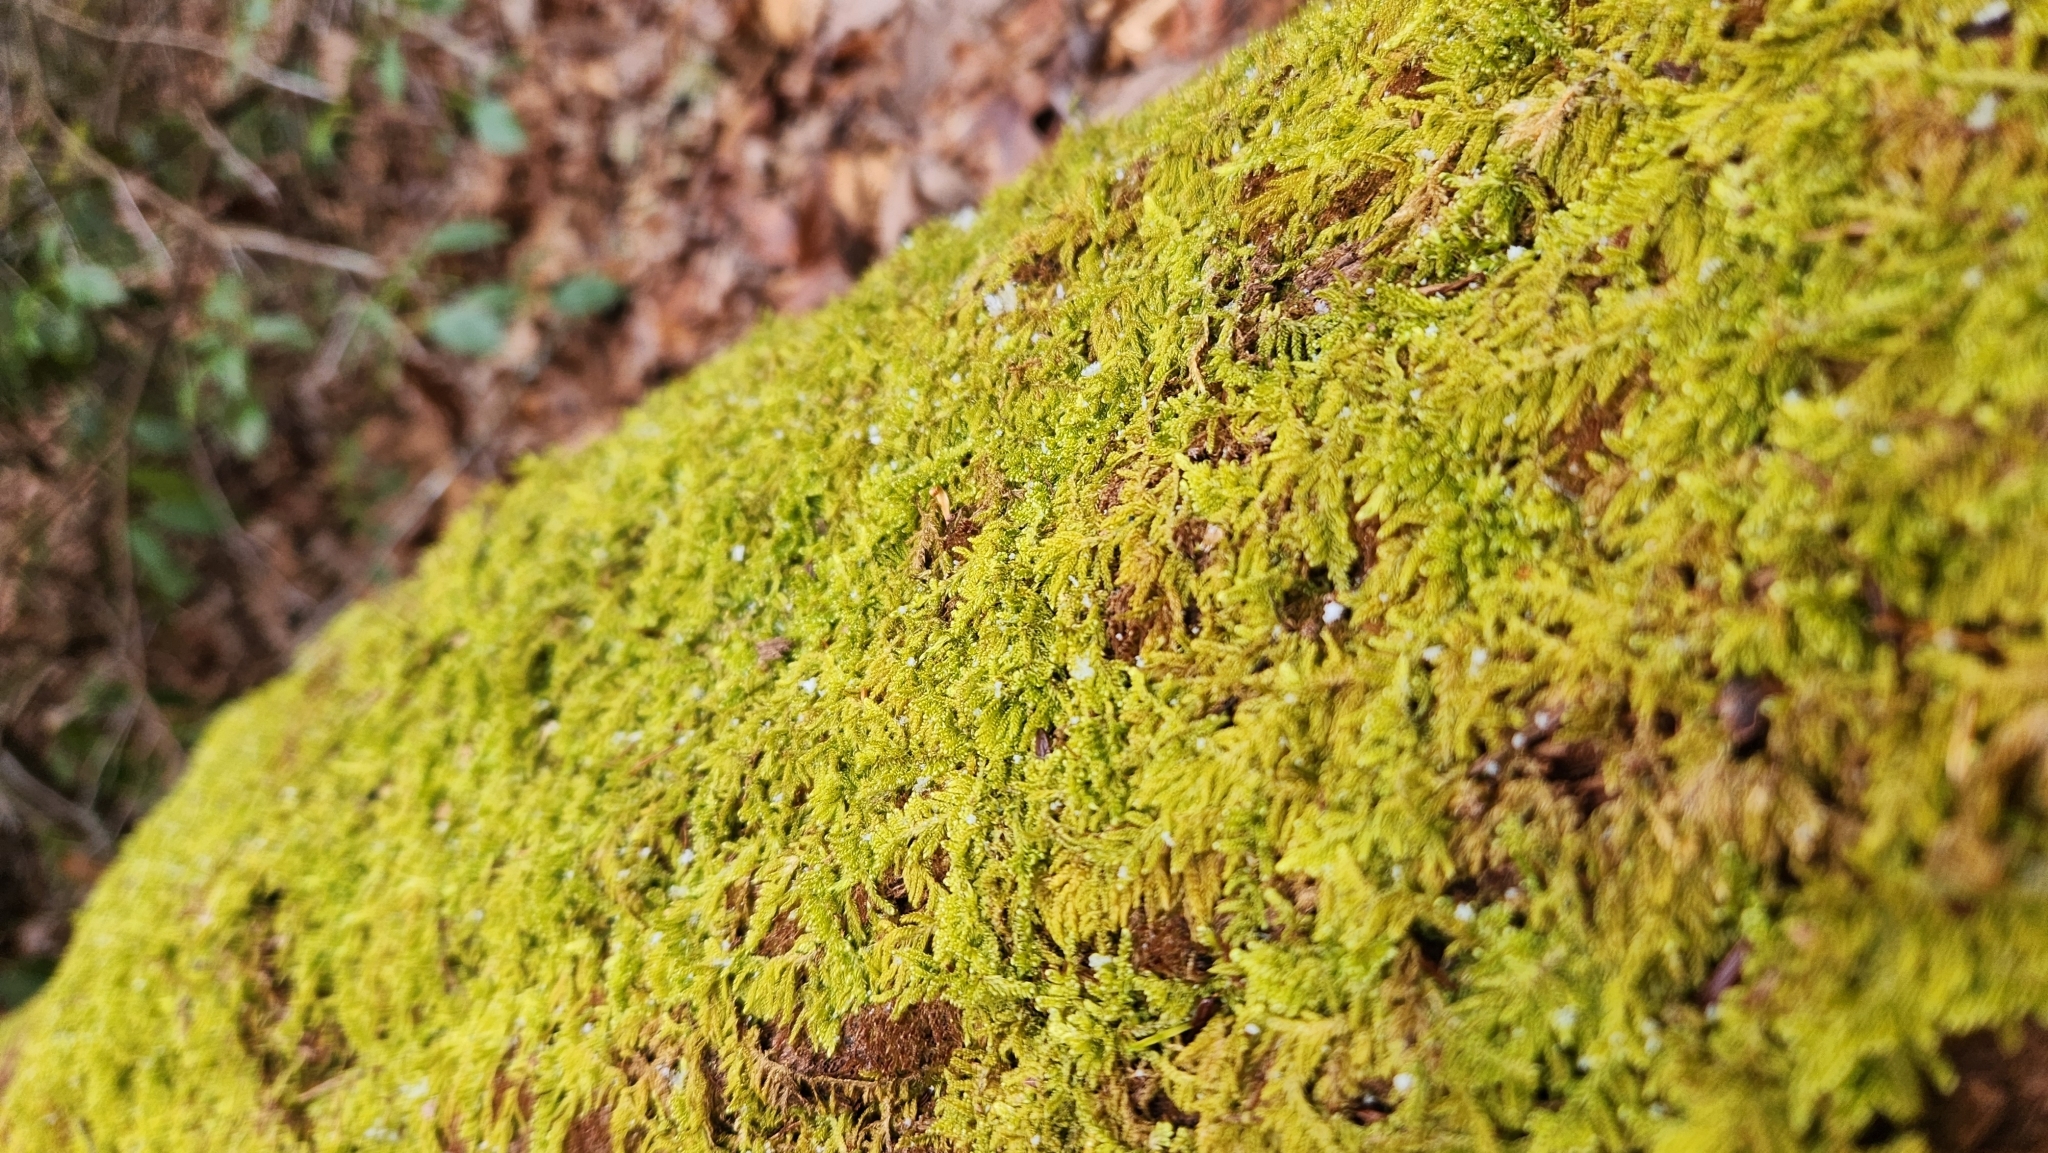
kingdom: Plantae
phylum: Bryophyta
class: Bryopsida
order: Hypnales
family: Callicladiaceae
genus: Callicladium
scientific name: Callicladium imponens
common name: Brocade moss
